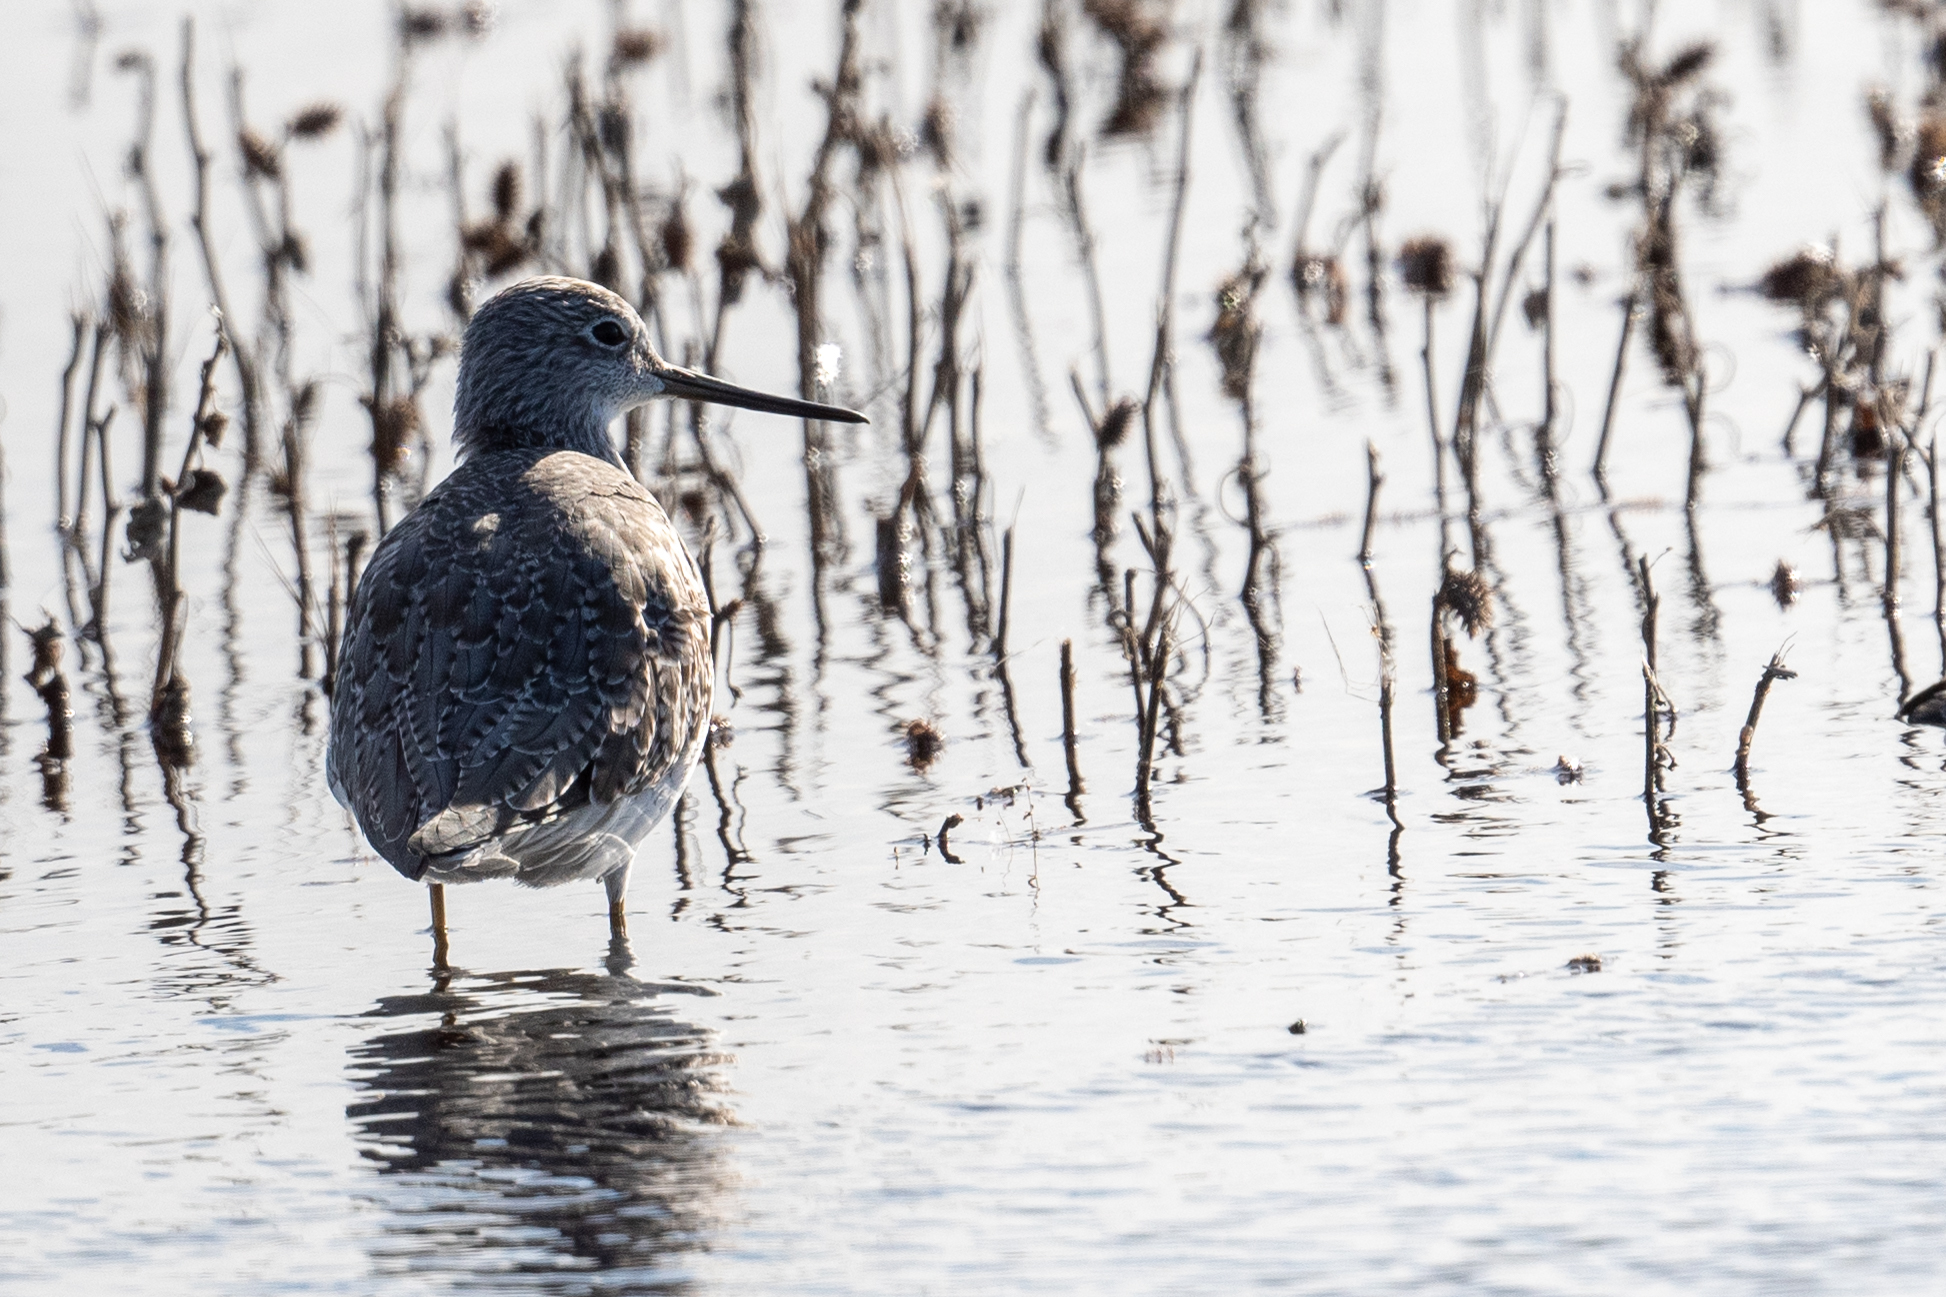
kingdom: Animalia
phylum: Chordata
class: Aves
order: Charadriiformes
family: Scolopacidae
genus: Tringa
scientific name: Tringa melanoleuca
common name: Greater yellowlegs
